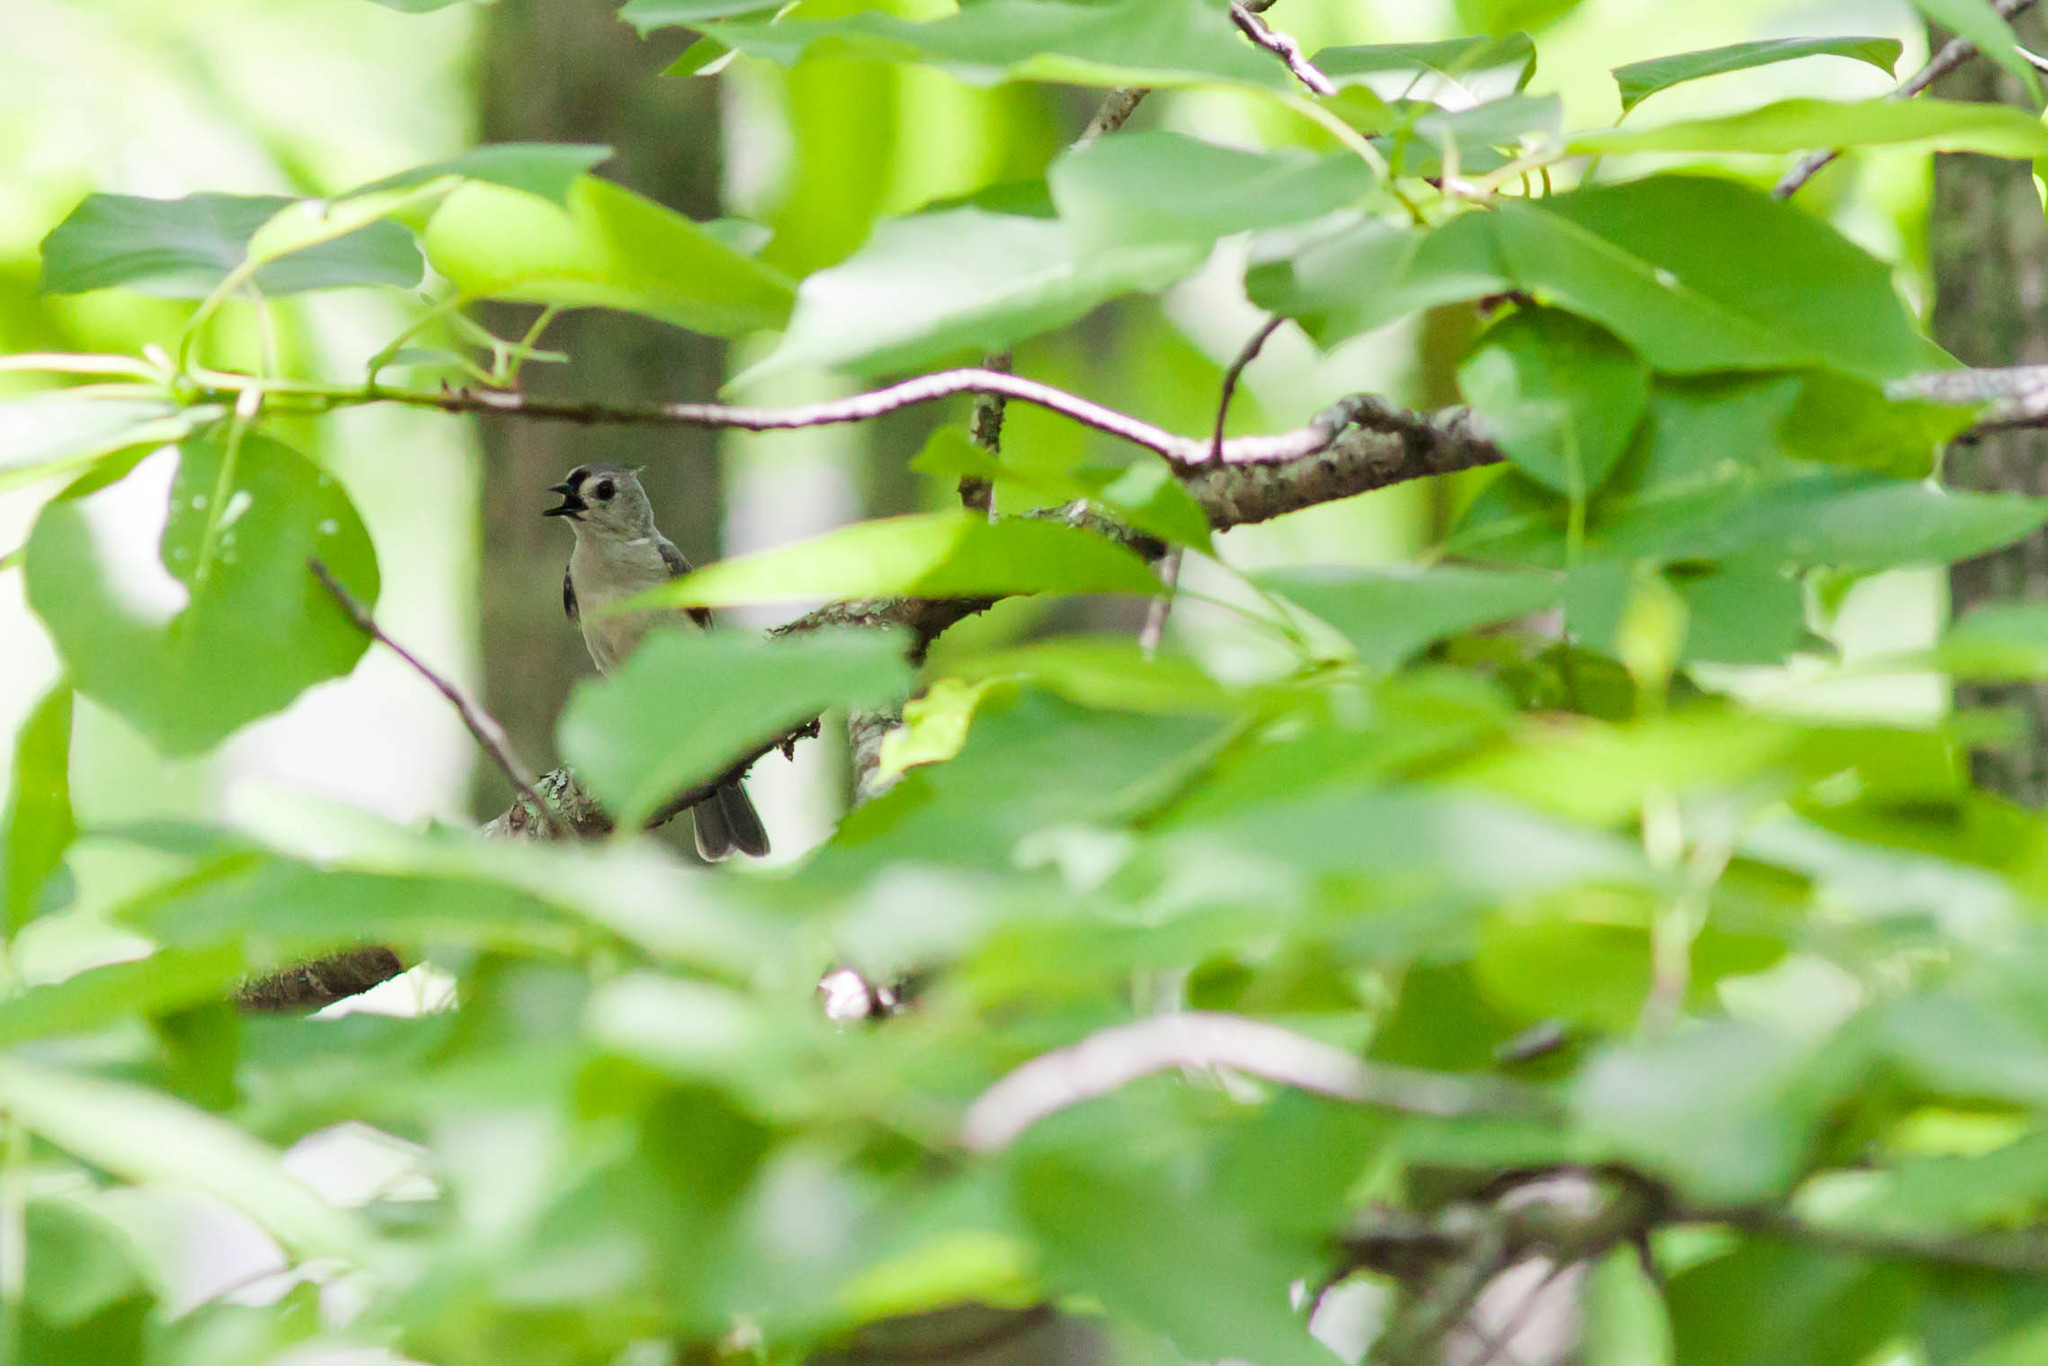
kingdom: Animalia
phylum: Chordata
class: Aves
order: Passeriformes
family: Paridae
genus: Baeolophus
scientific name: Baeolophus bicolor
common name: Tufted titmouse
